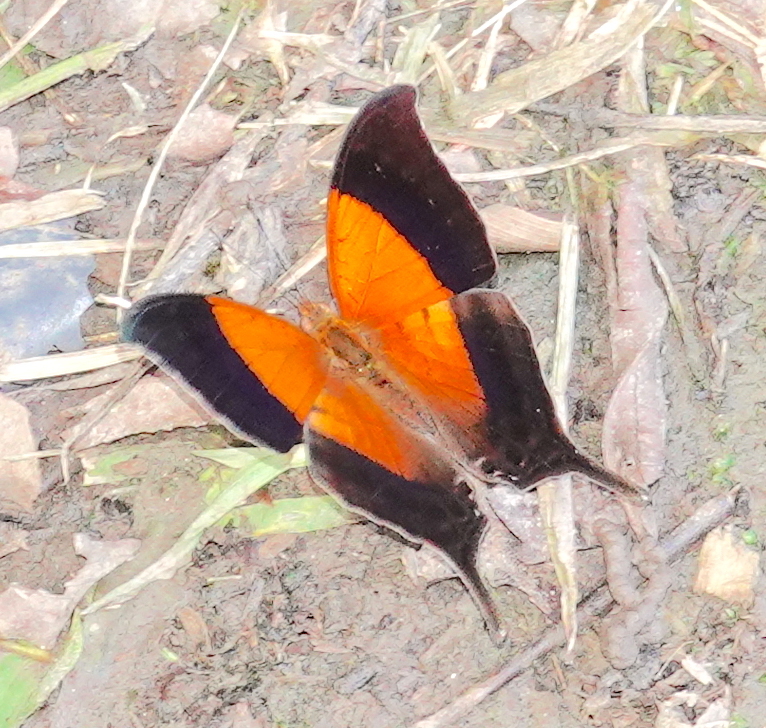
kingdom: Animalia
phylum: Arthropoda
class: Insecta
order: Lepidoptera
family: Nymphalidae
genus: Marpesia
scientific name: Marpesia furcula
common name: Sunset daggerwing
